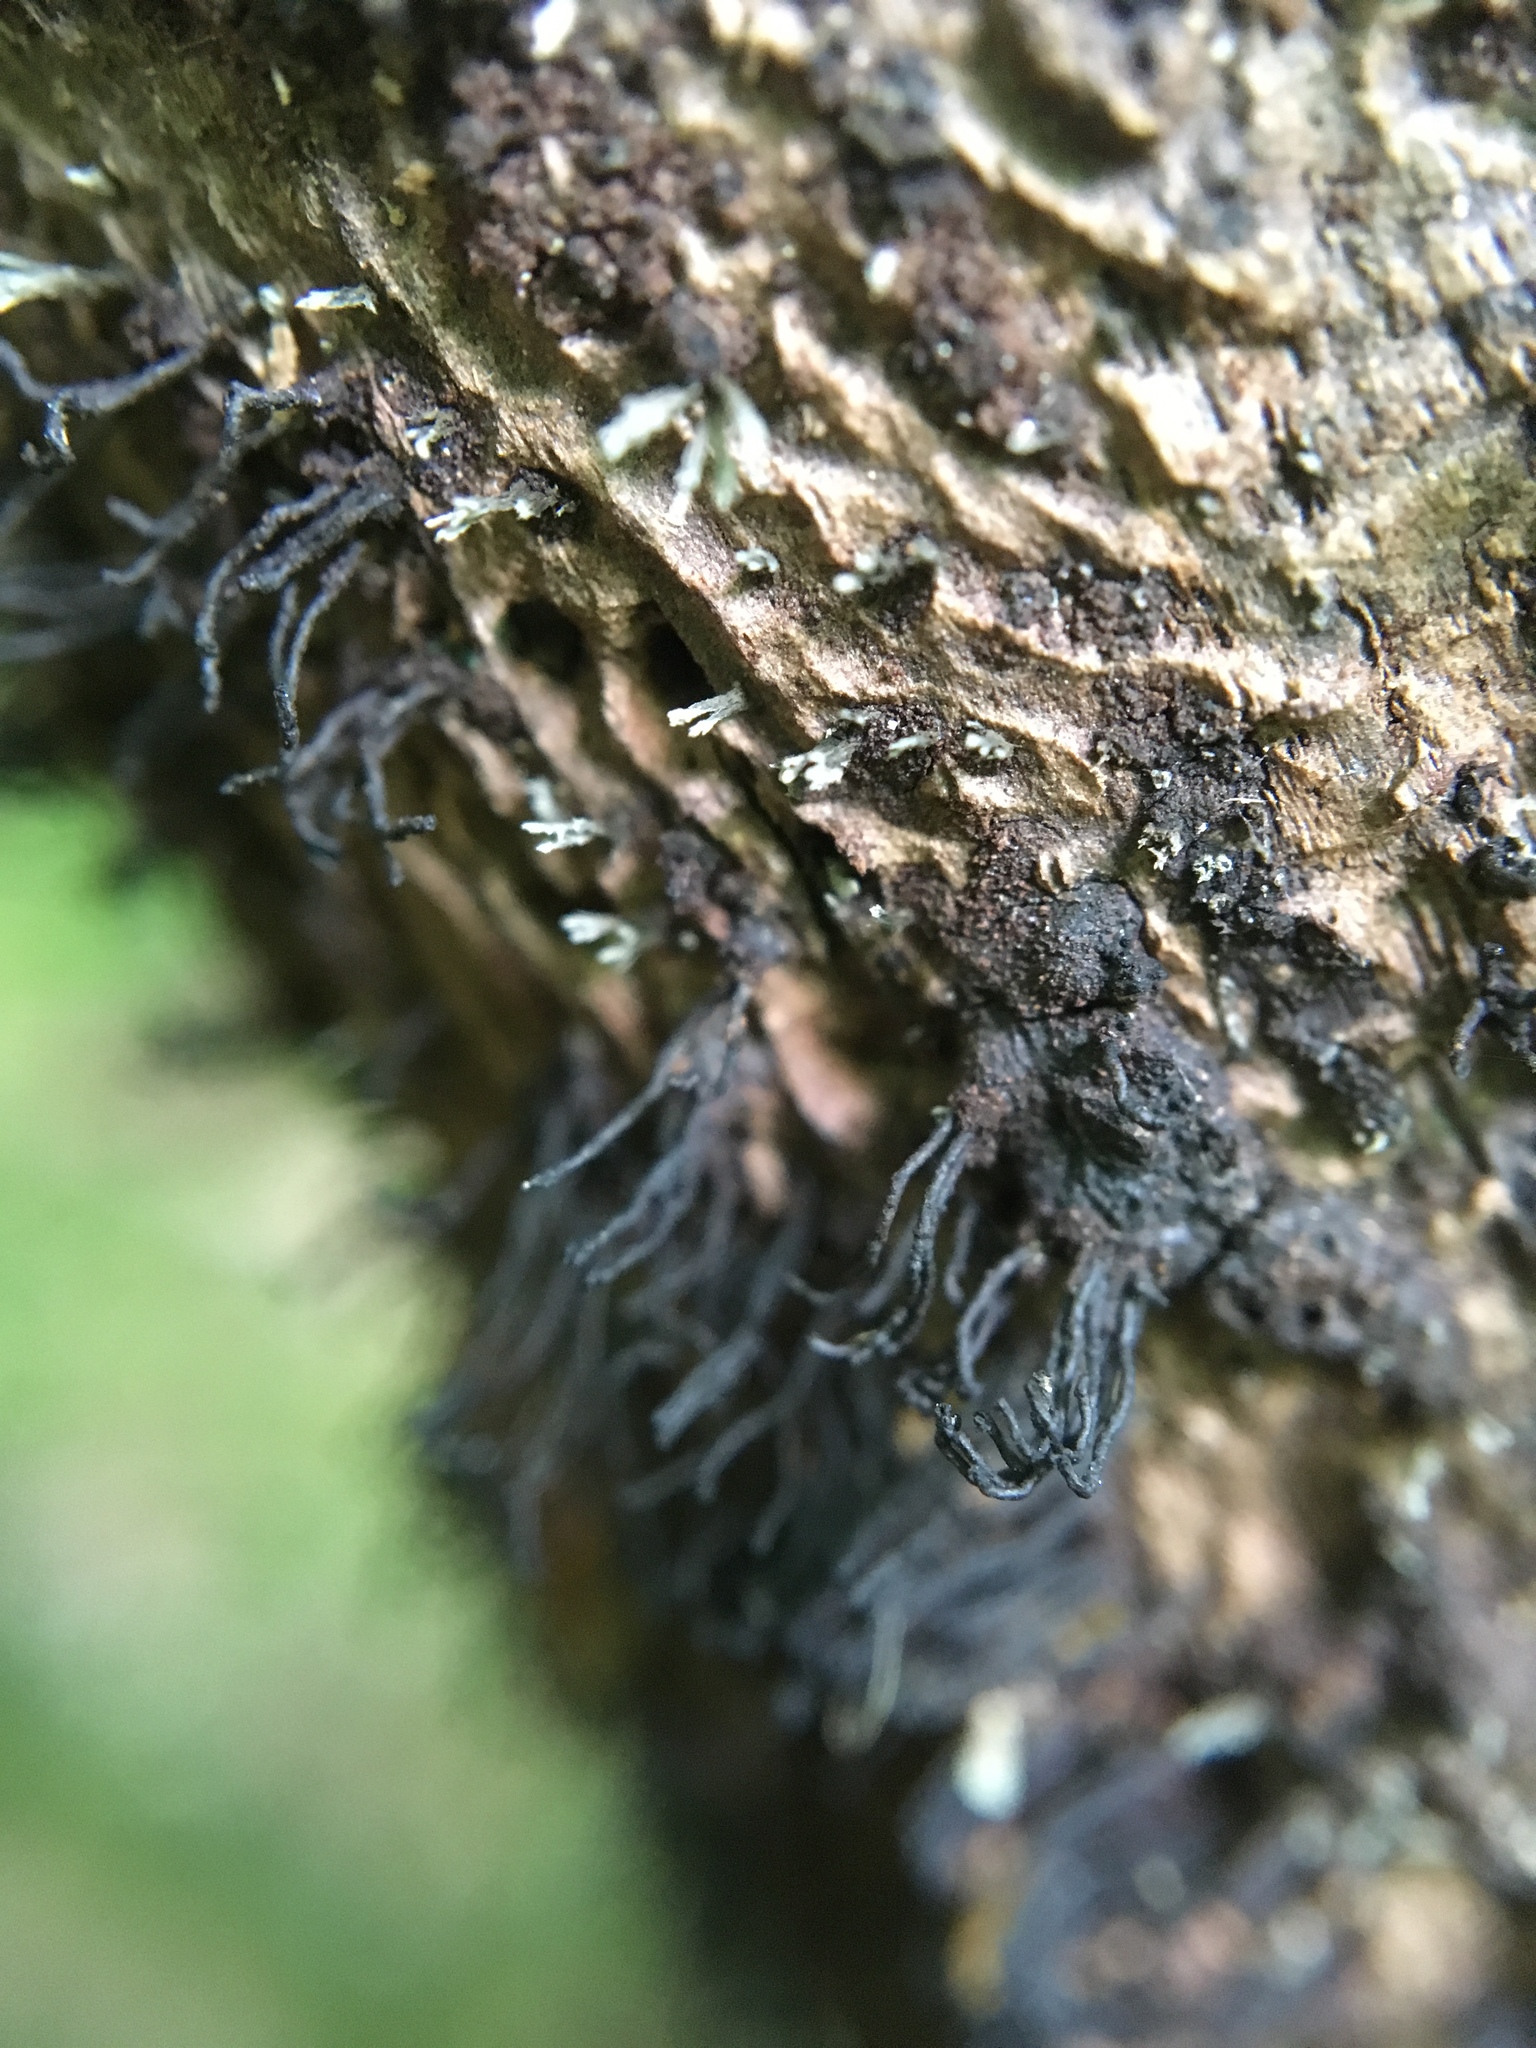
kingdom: Fungi
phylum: Ascomycota
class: Sordariomycetes
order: Xylariales
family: Diatrypaceae
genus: Peroneutypa
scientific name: Peroneutypa scoparia
